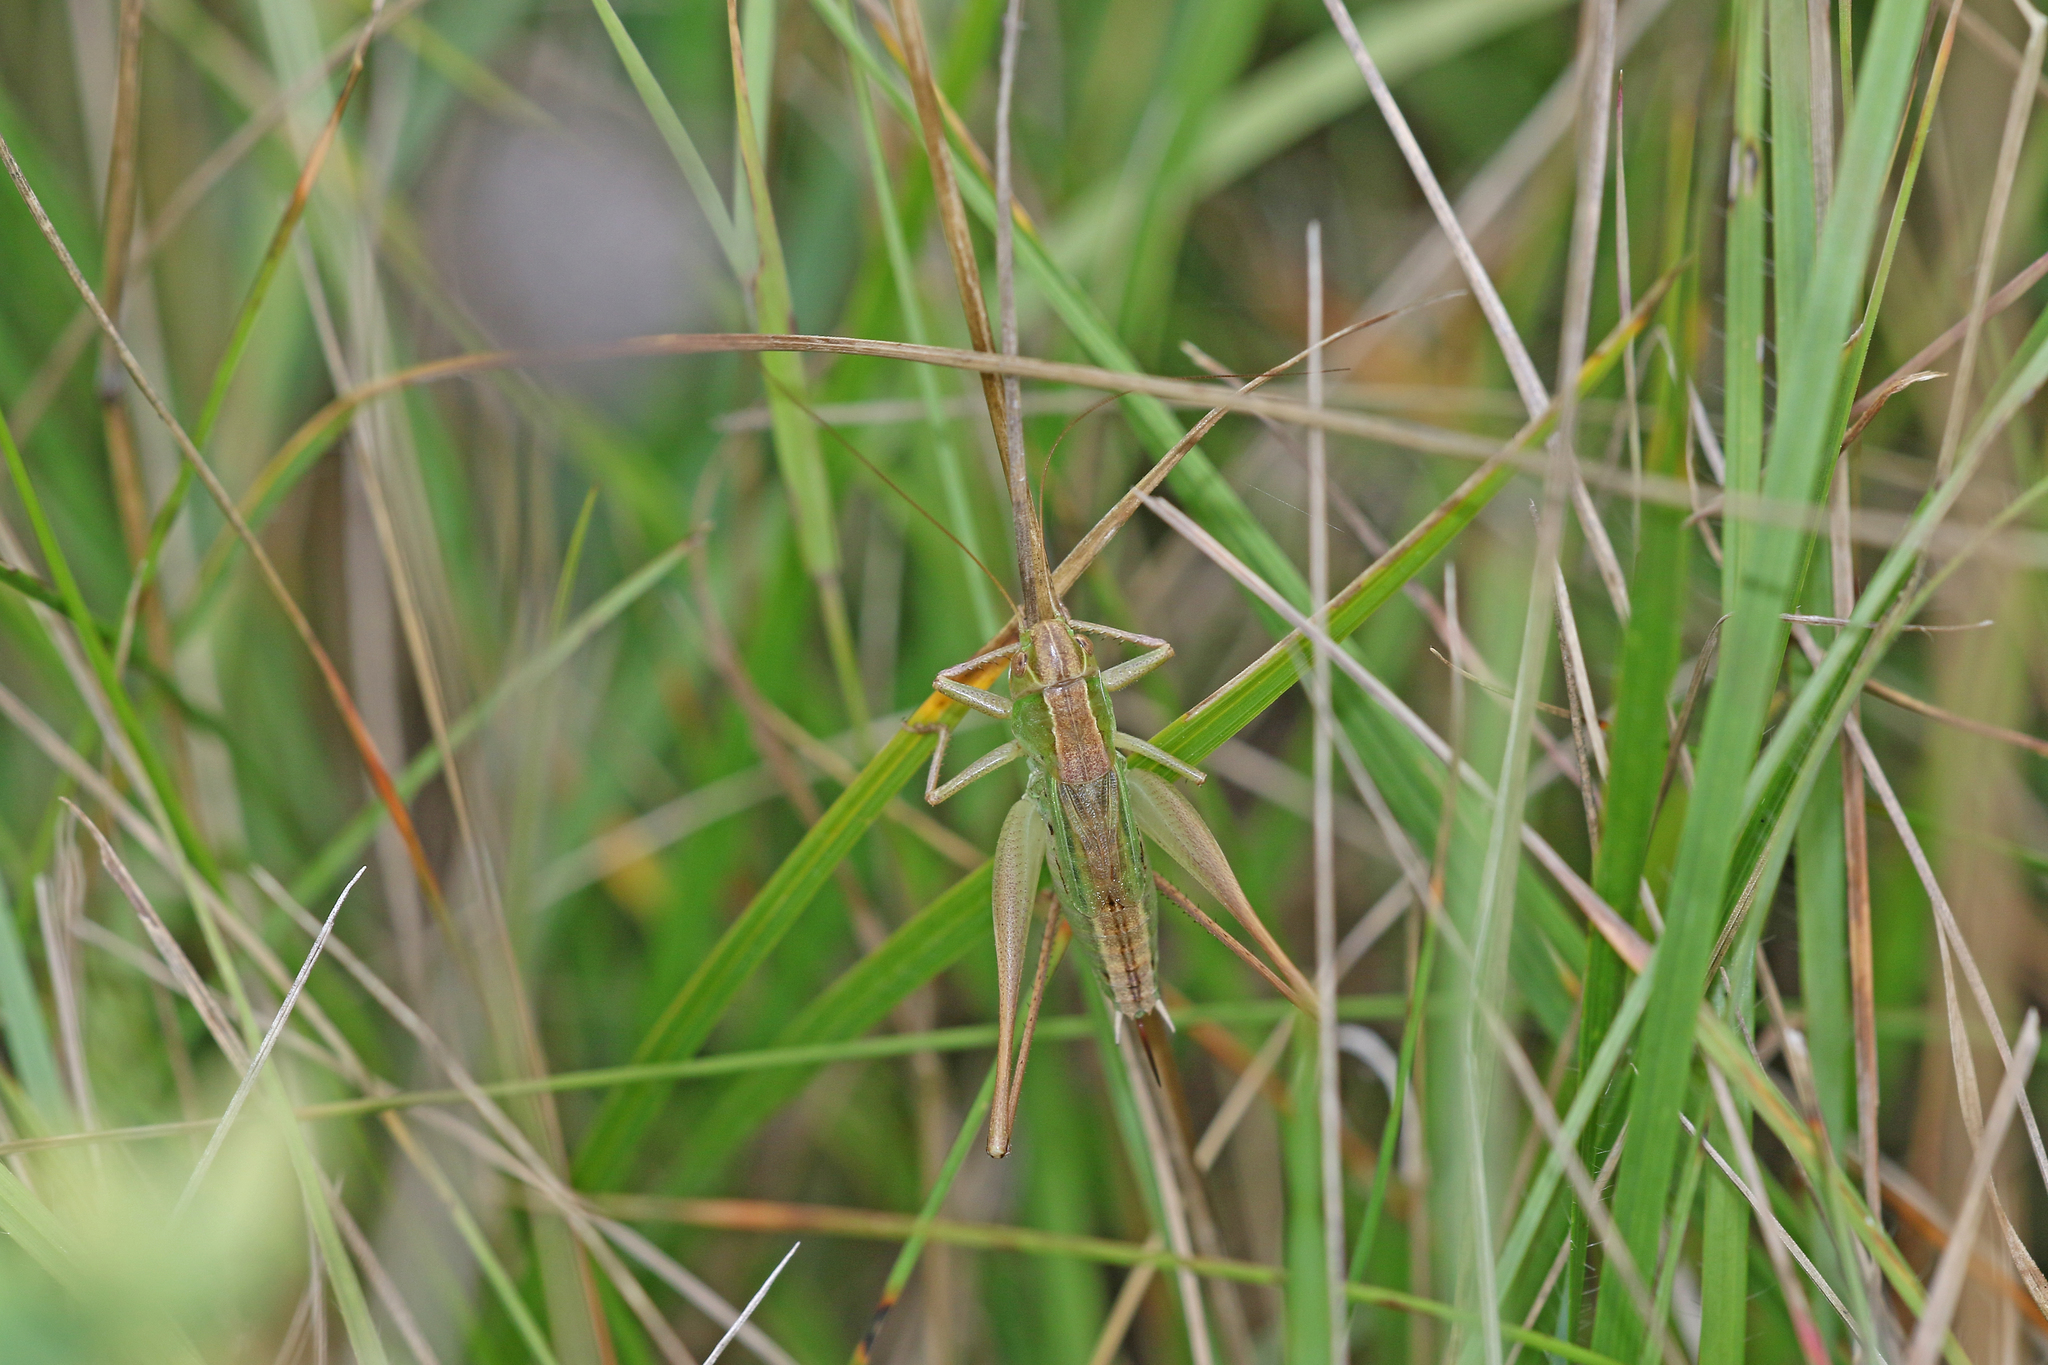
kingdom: Animalia
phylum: Arthropoda
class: Insecta
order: Orthoptera
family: Tettigoniidae
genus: Bicolorana
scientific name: Bicolorana bicolor
